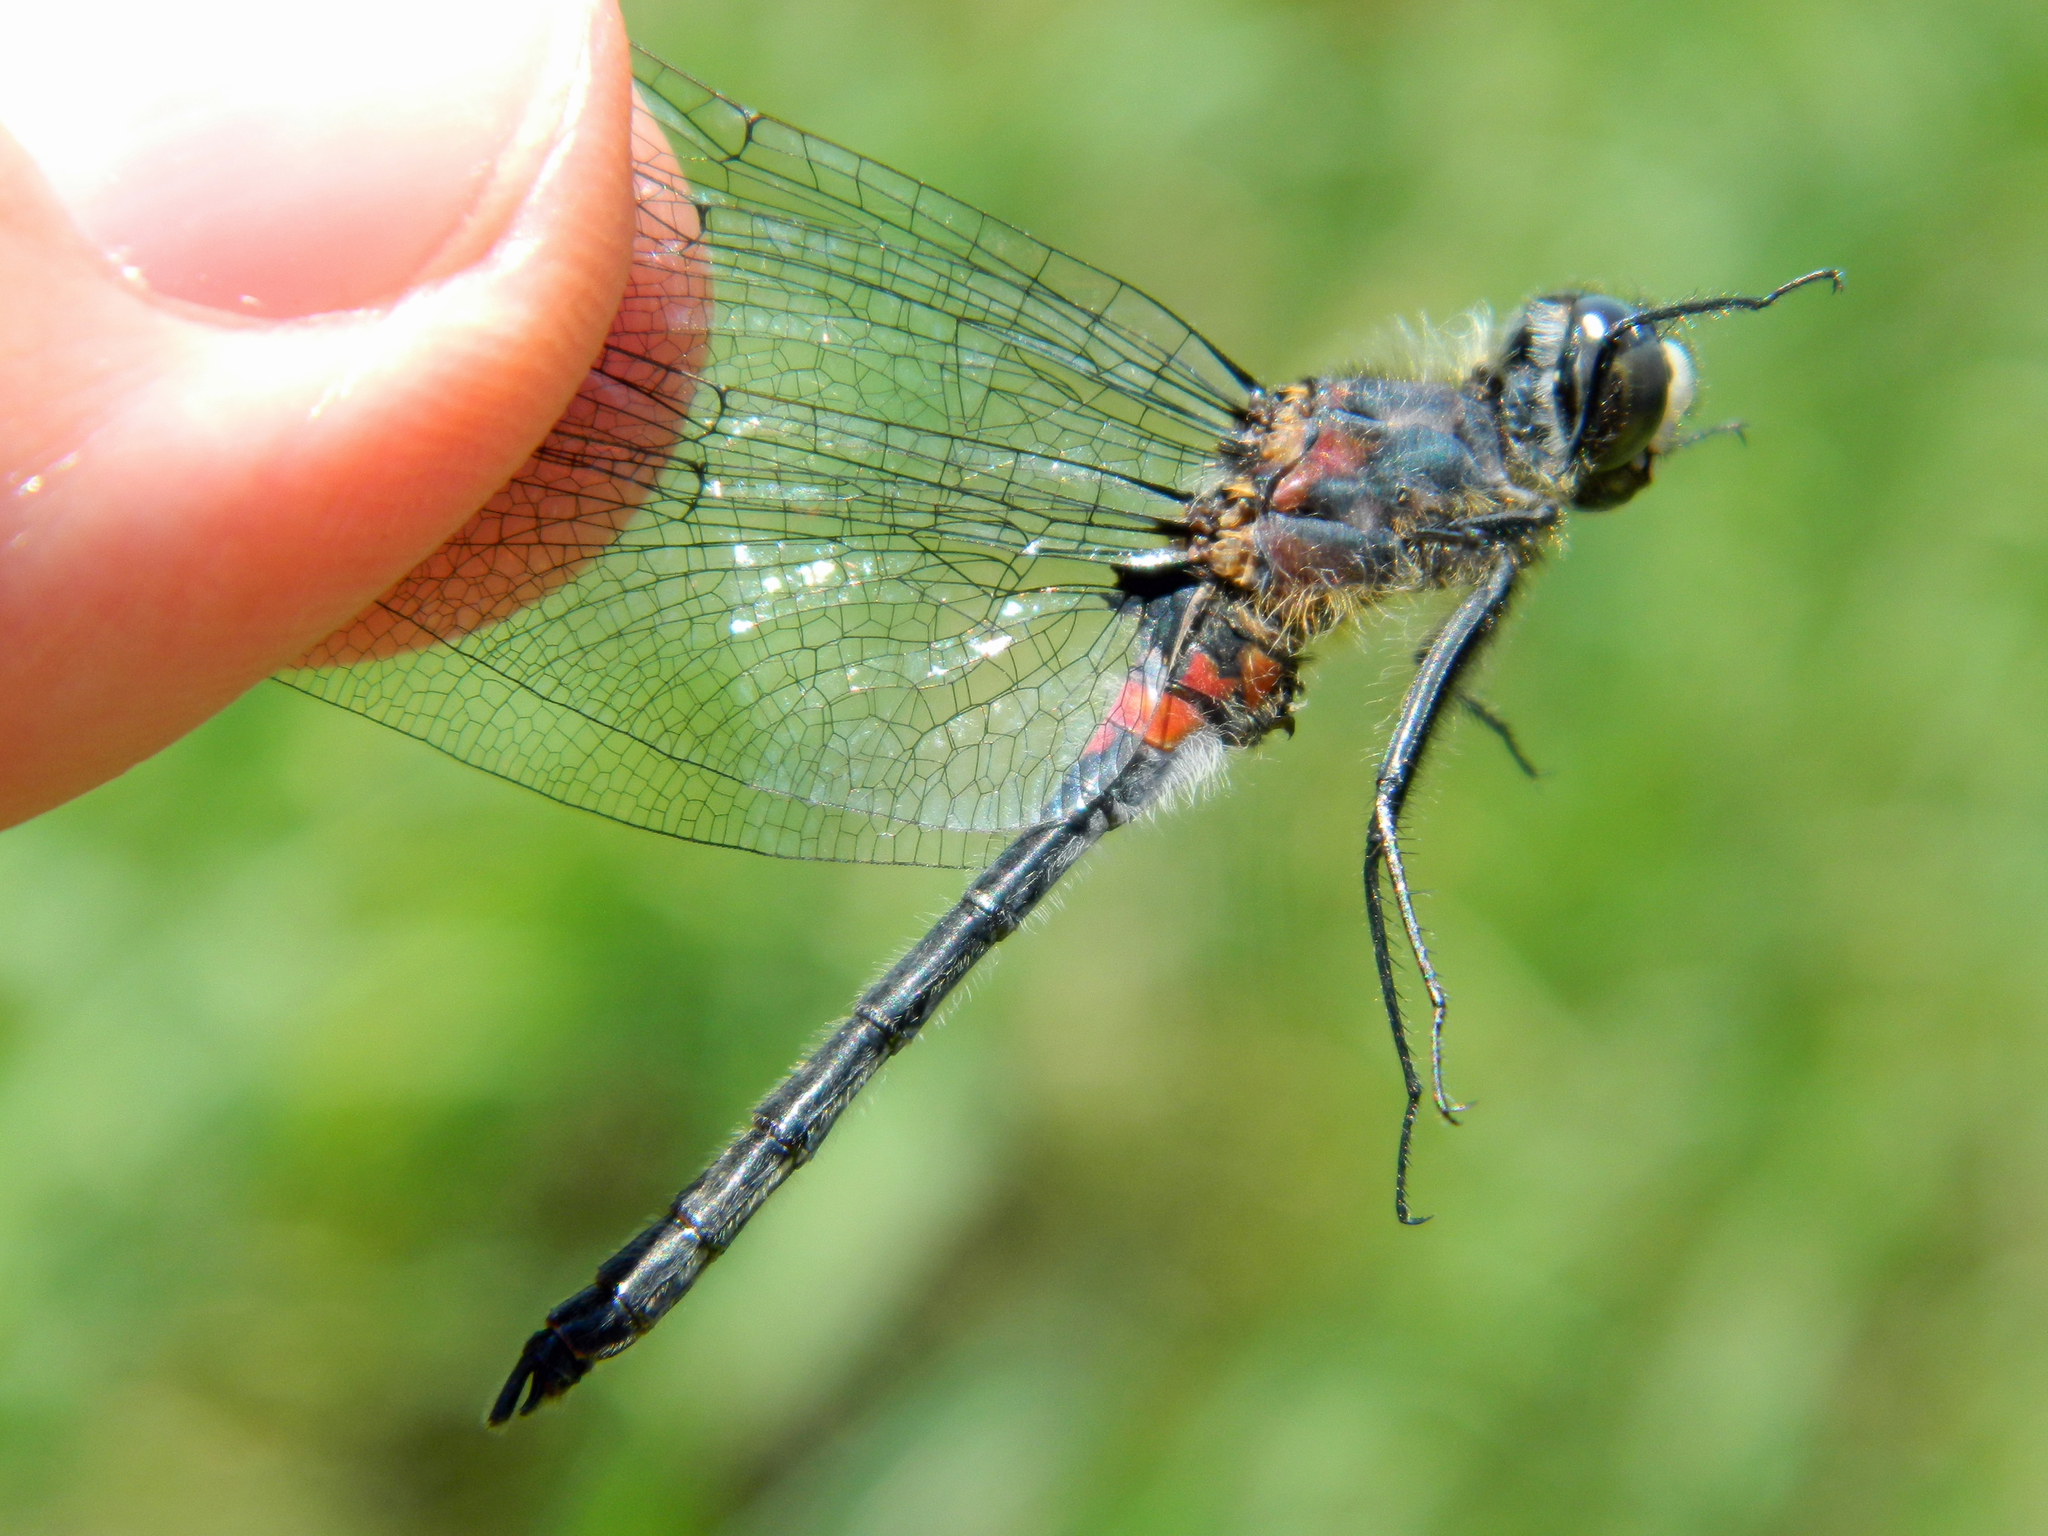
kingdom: Animalia
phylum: Arthropoda
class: Insecta
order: Odonata
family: Libellulidae
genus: Leucorrhinia
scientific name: Leucorrhinia proxima
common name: Belted whiteface
